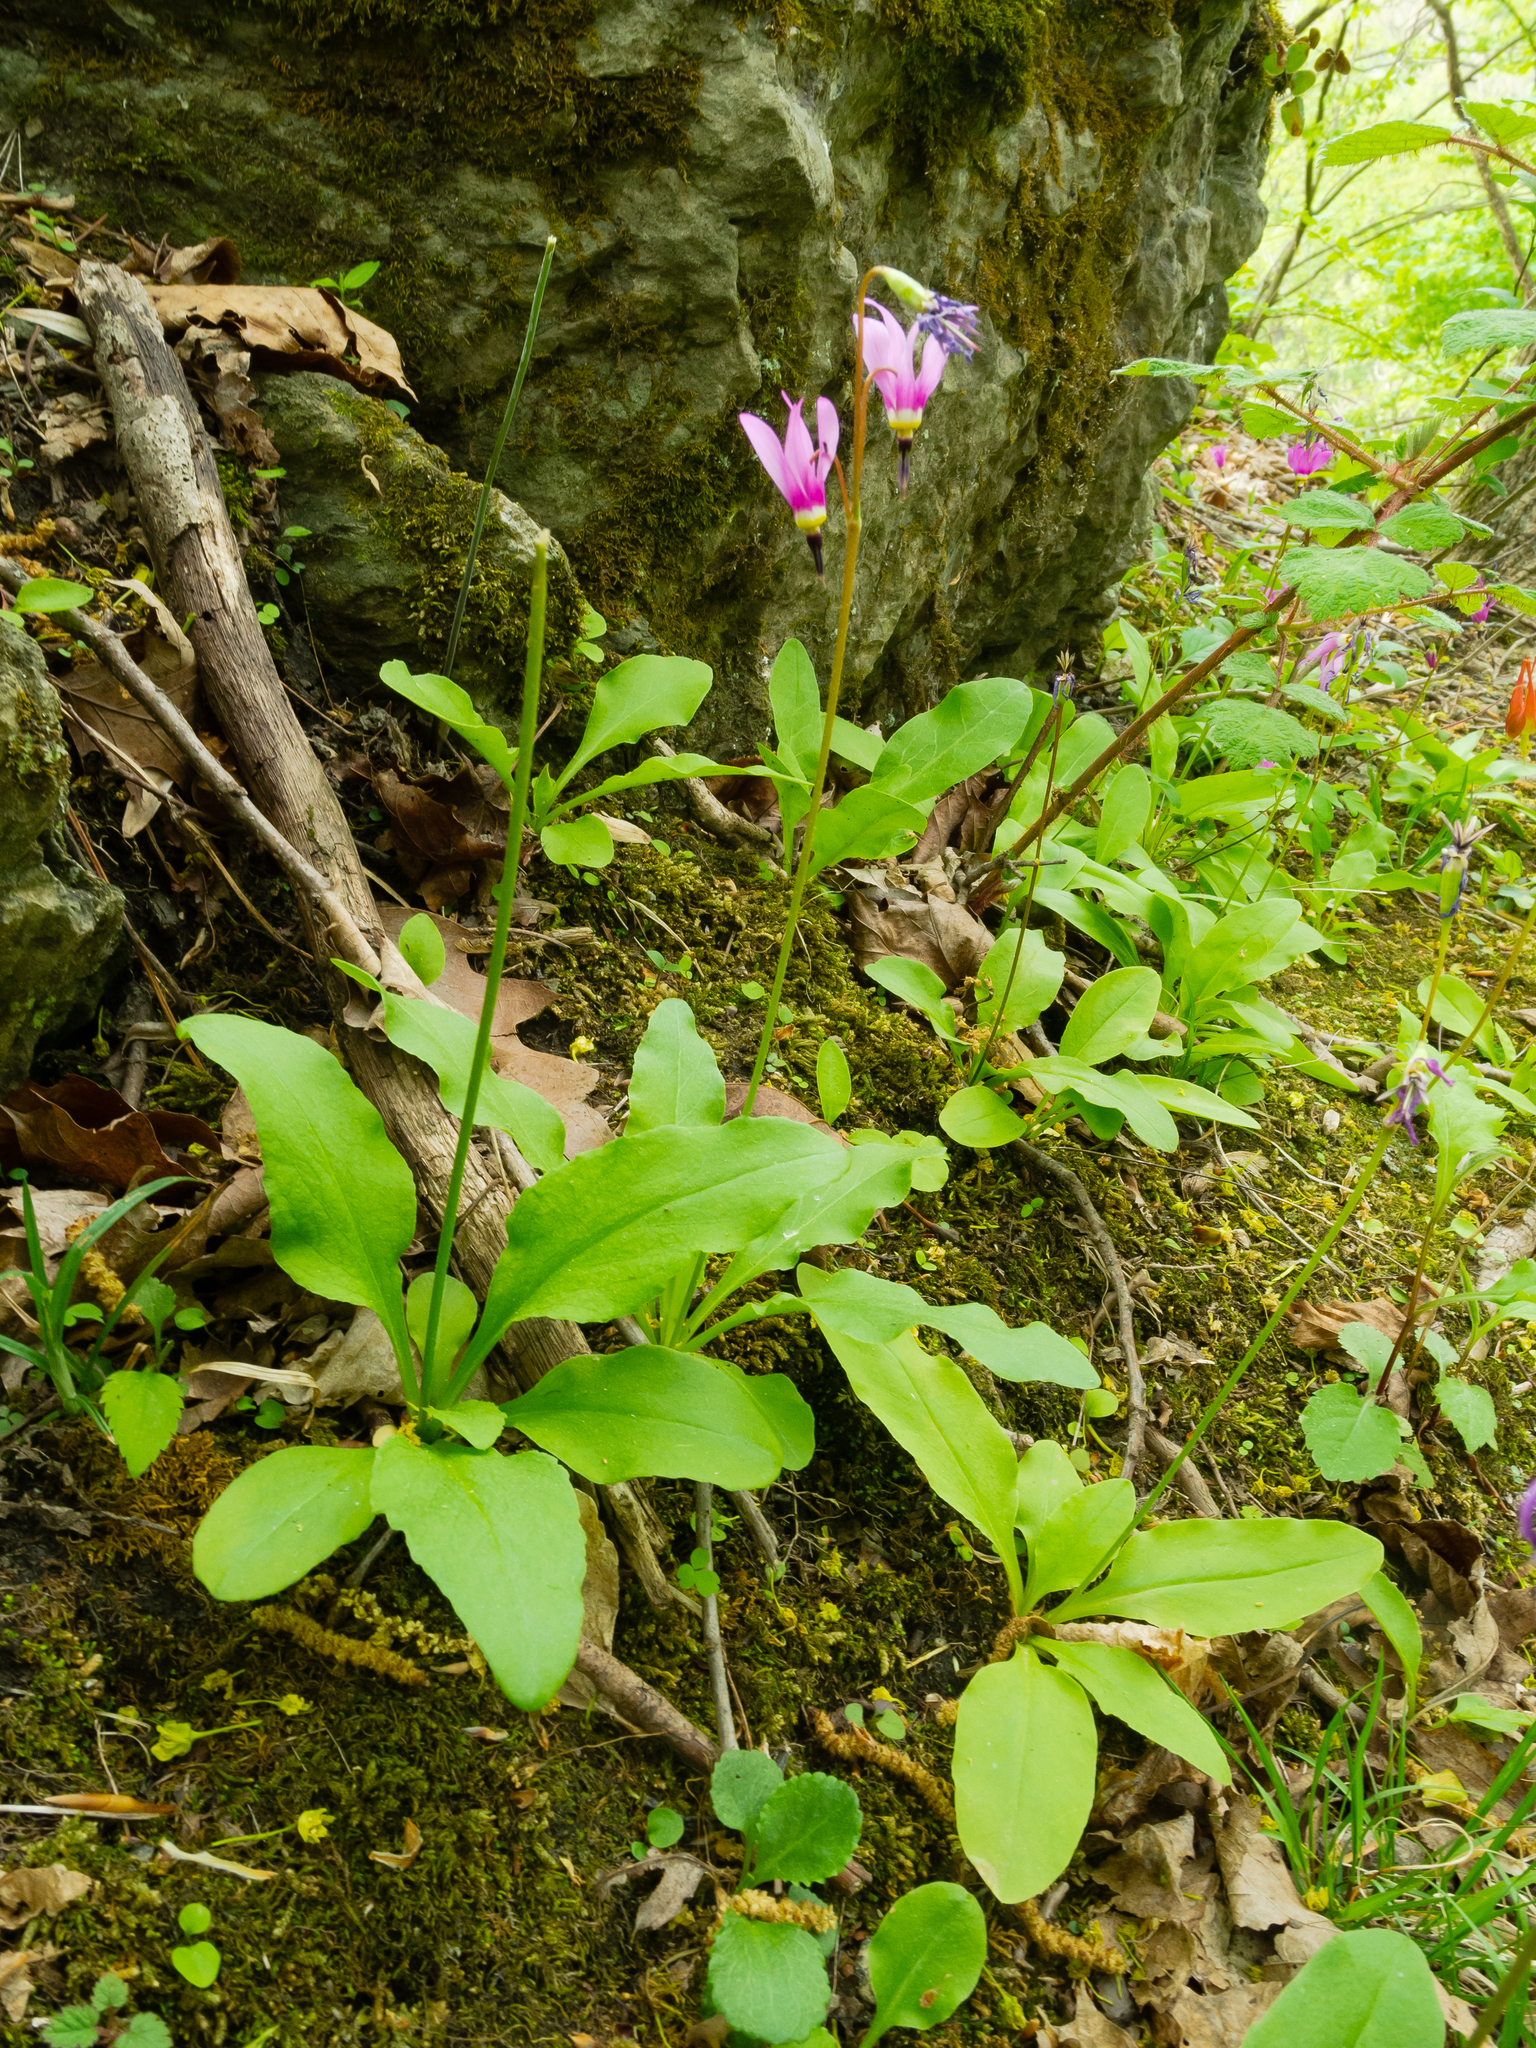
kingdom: Plantae
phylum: Tracheophyta
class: Magnoliopsida
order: Ericales
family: Primulaceae
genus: Dodecatheon
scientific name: Dodecatheon amethystinum
